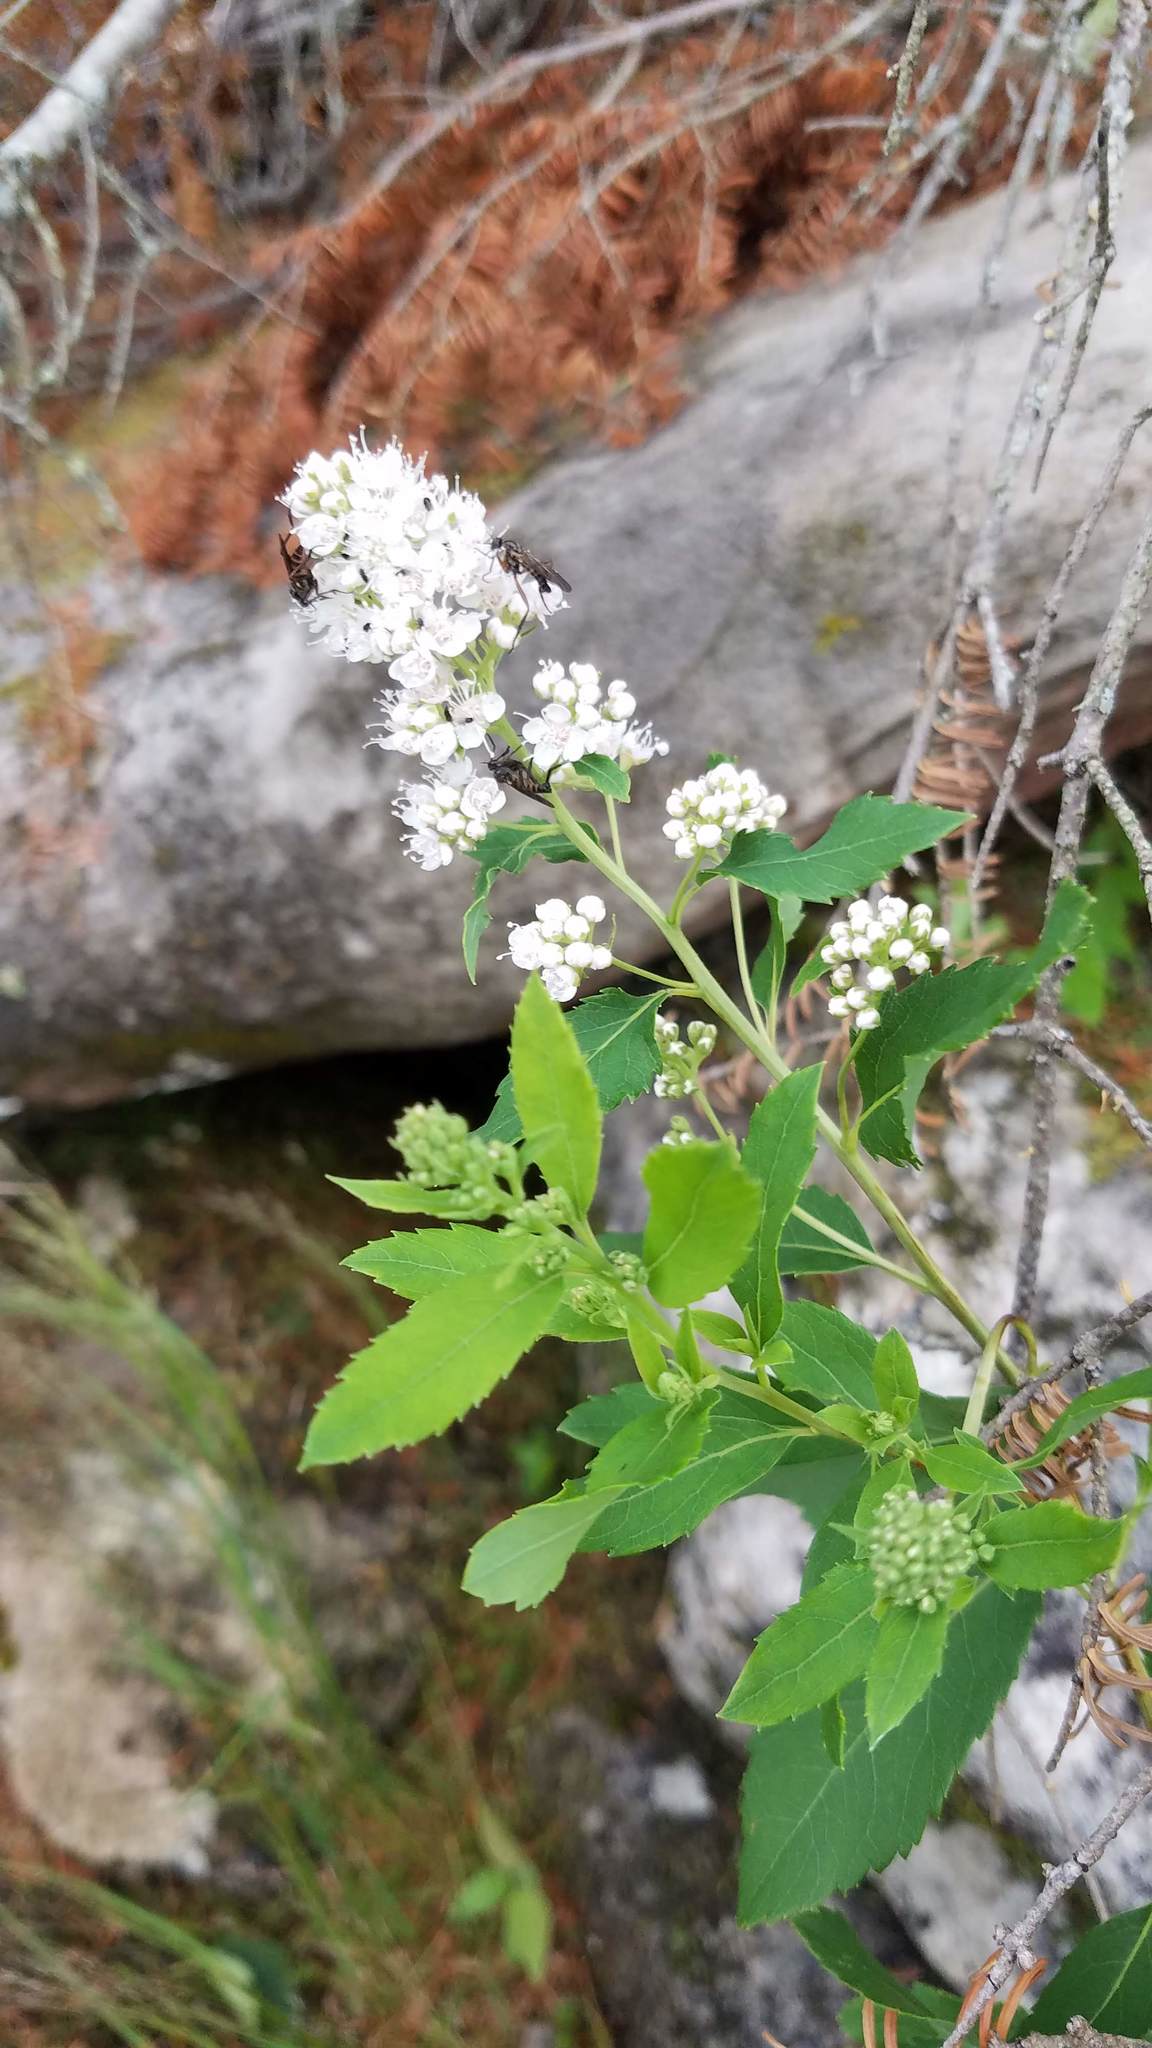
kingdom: Plantae
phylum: Tracheophyta
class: Magnoliopsida
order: Rosales
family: Rosaceae
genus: Spiraea
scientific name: Spiraea alba
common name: Pale bridewort
